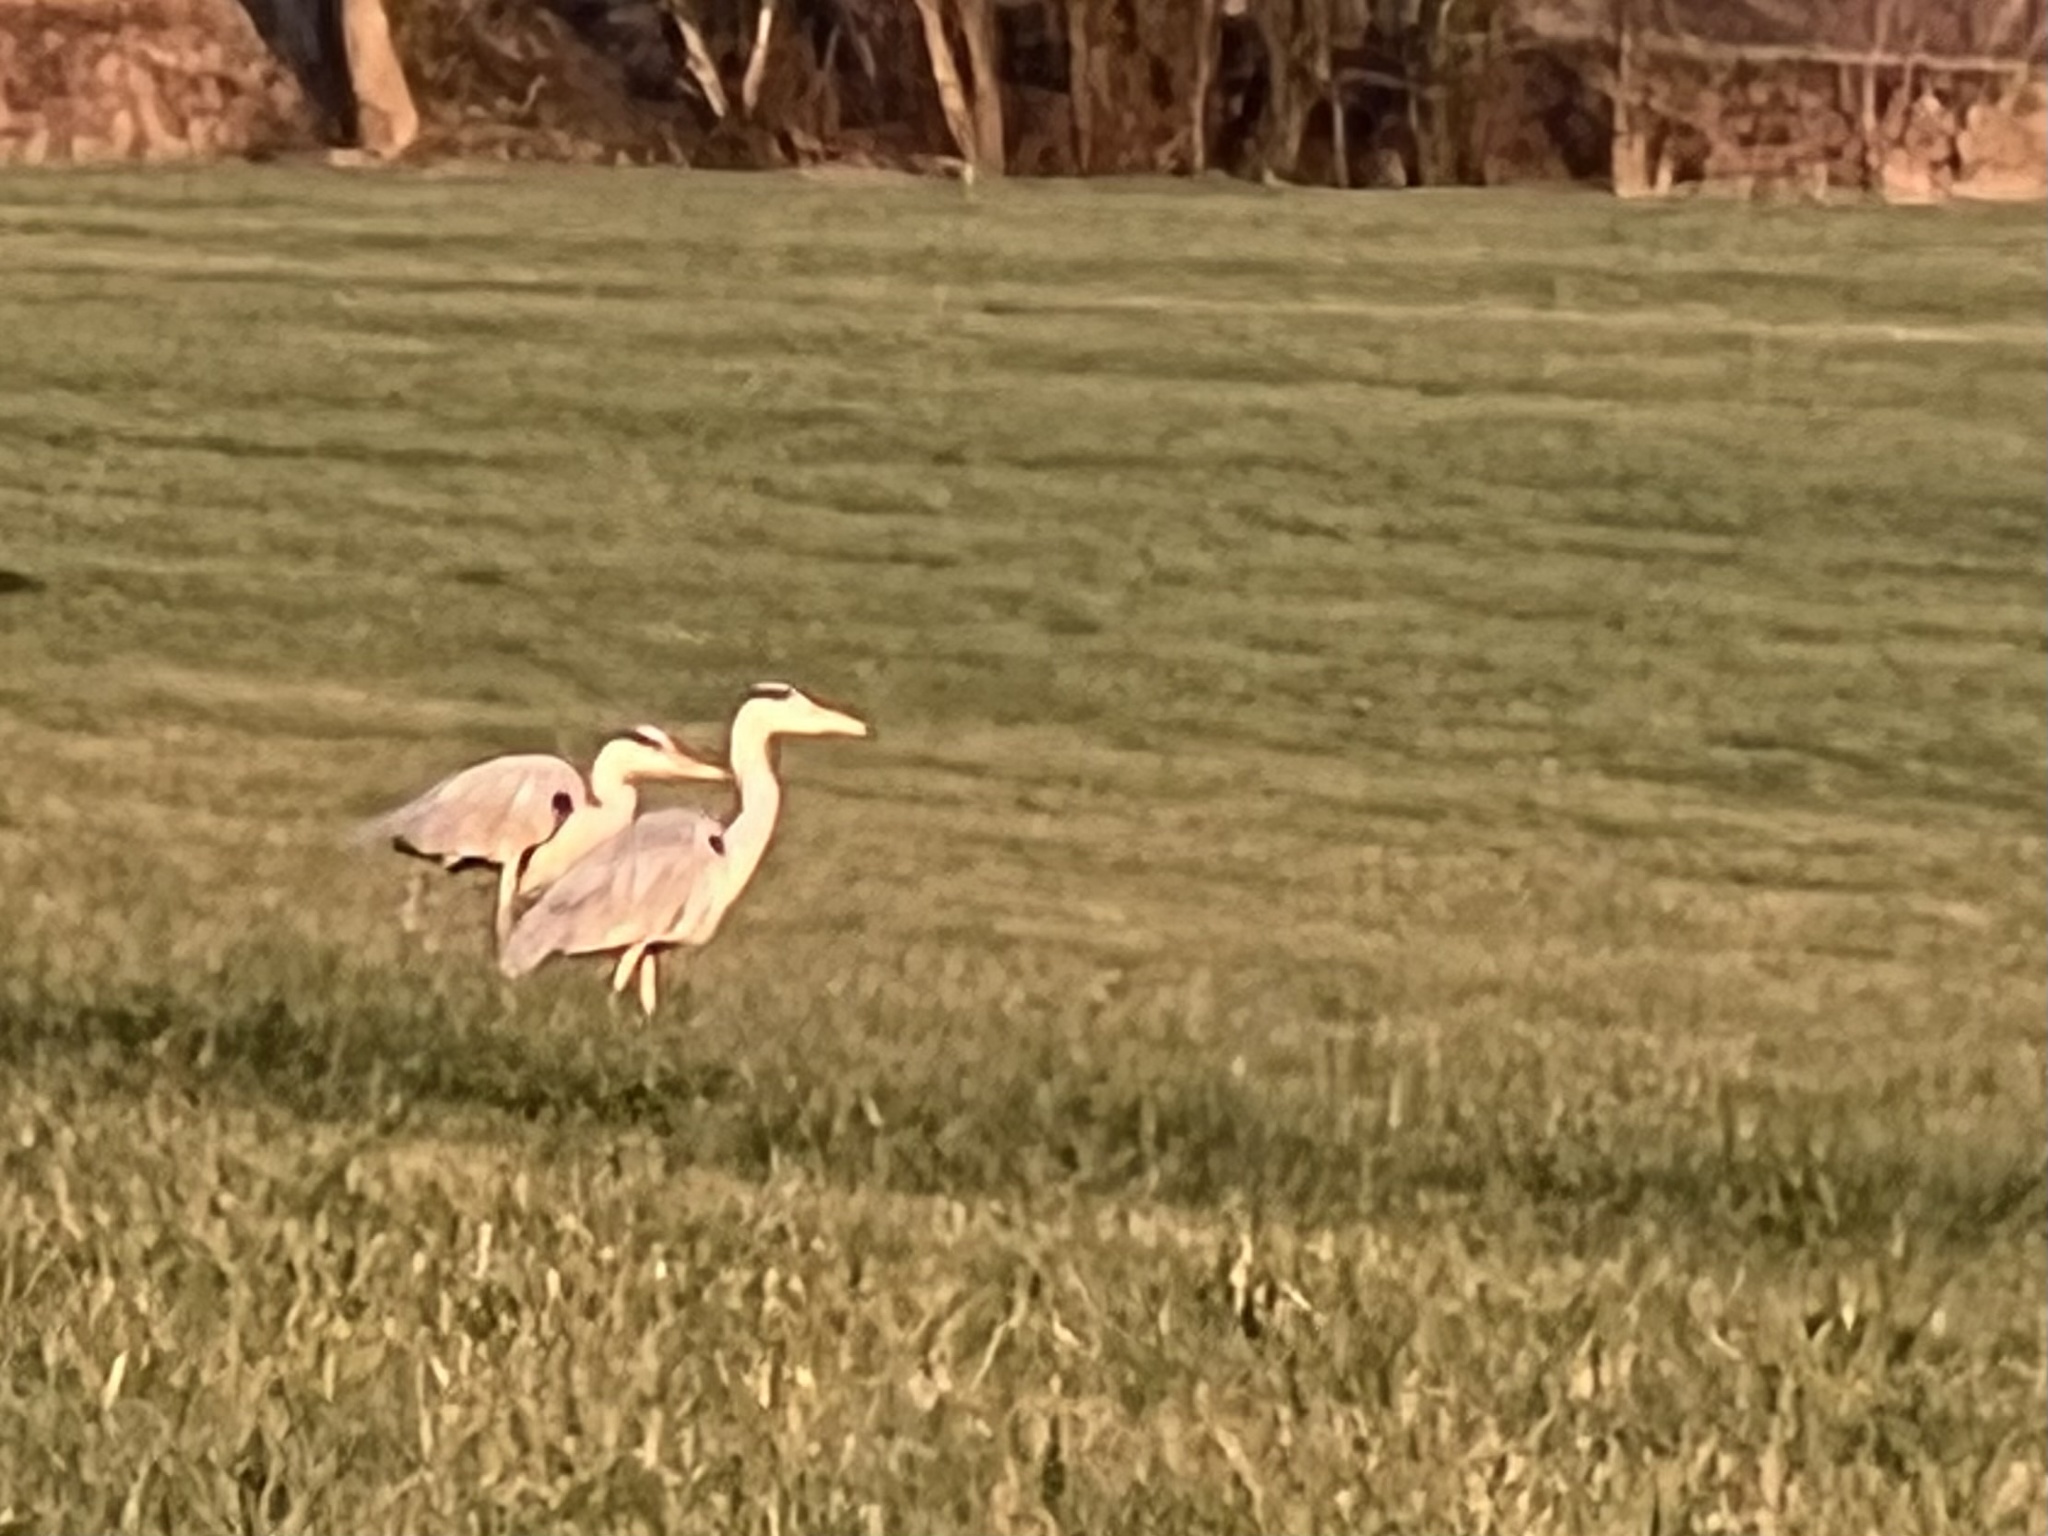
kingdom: Animalia
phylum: Chordata
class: Aves
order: Pelecaniformes
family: Ardeidae
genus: Ardea
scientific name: Ardea cinerea
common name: Grey heron
